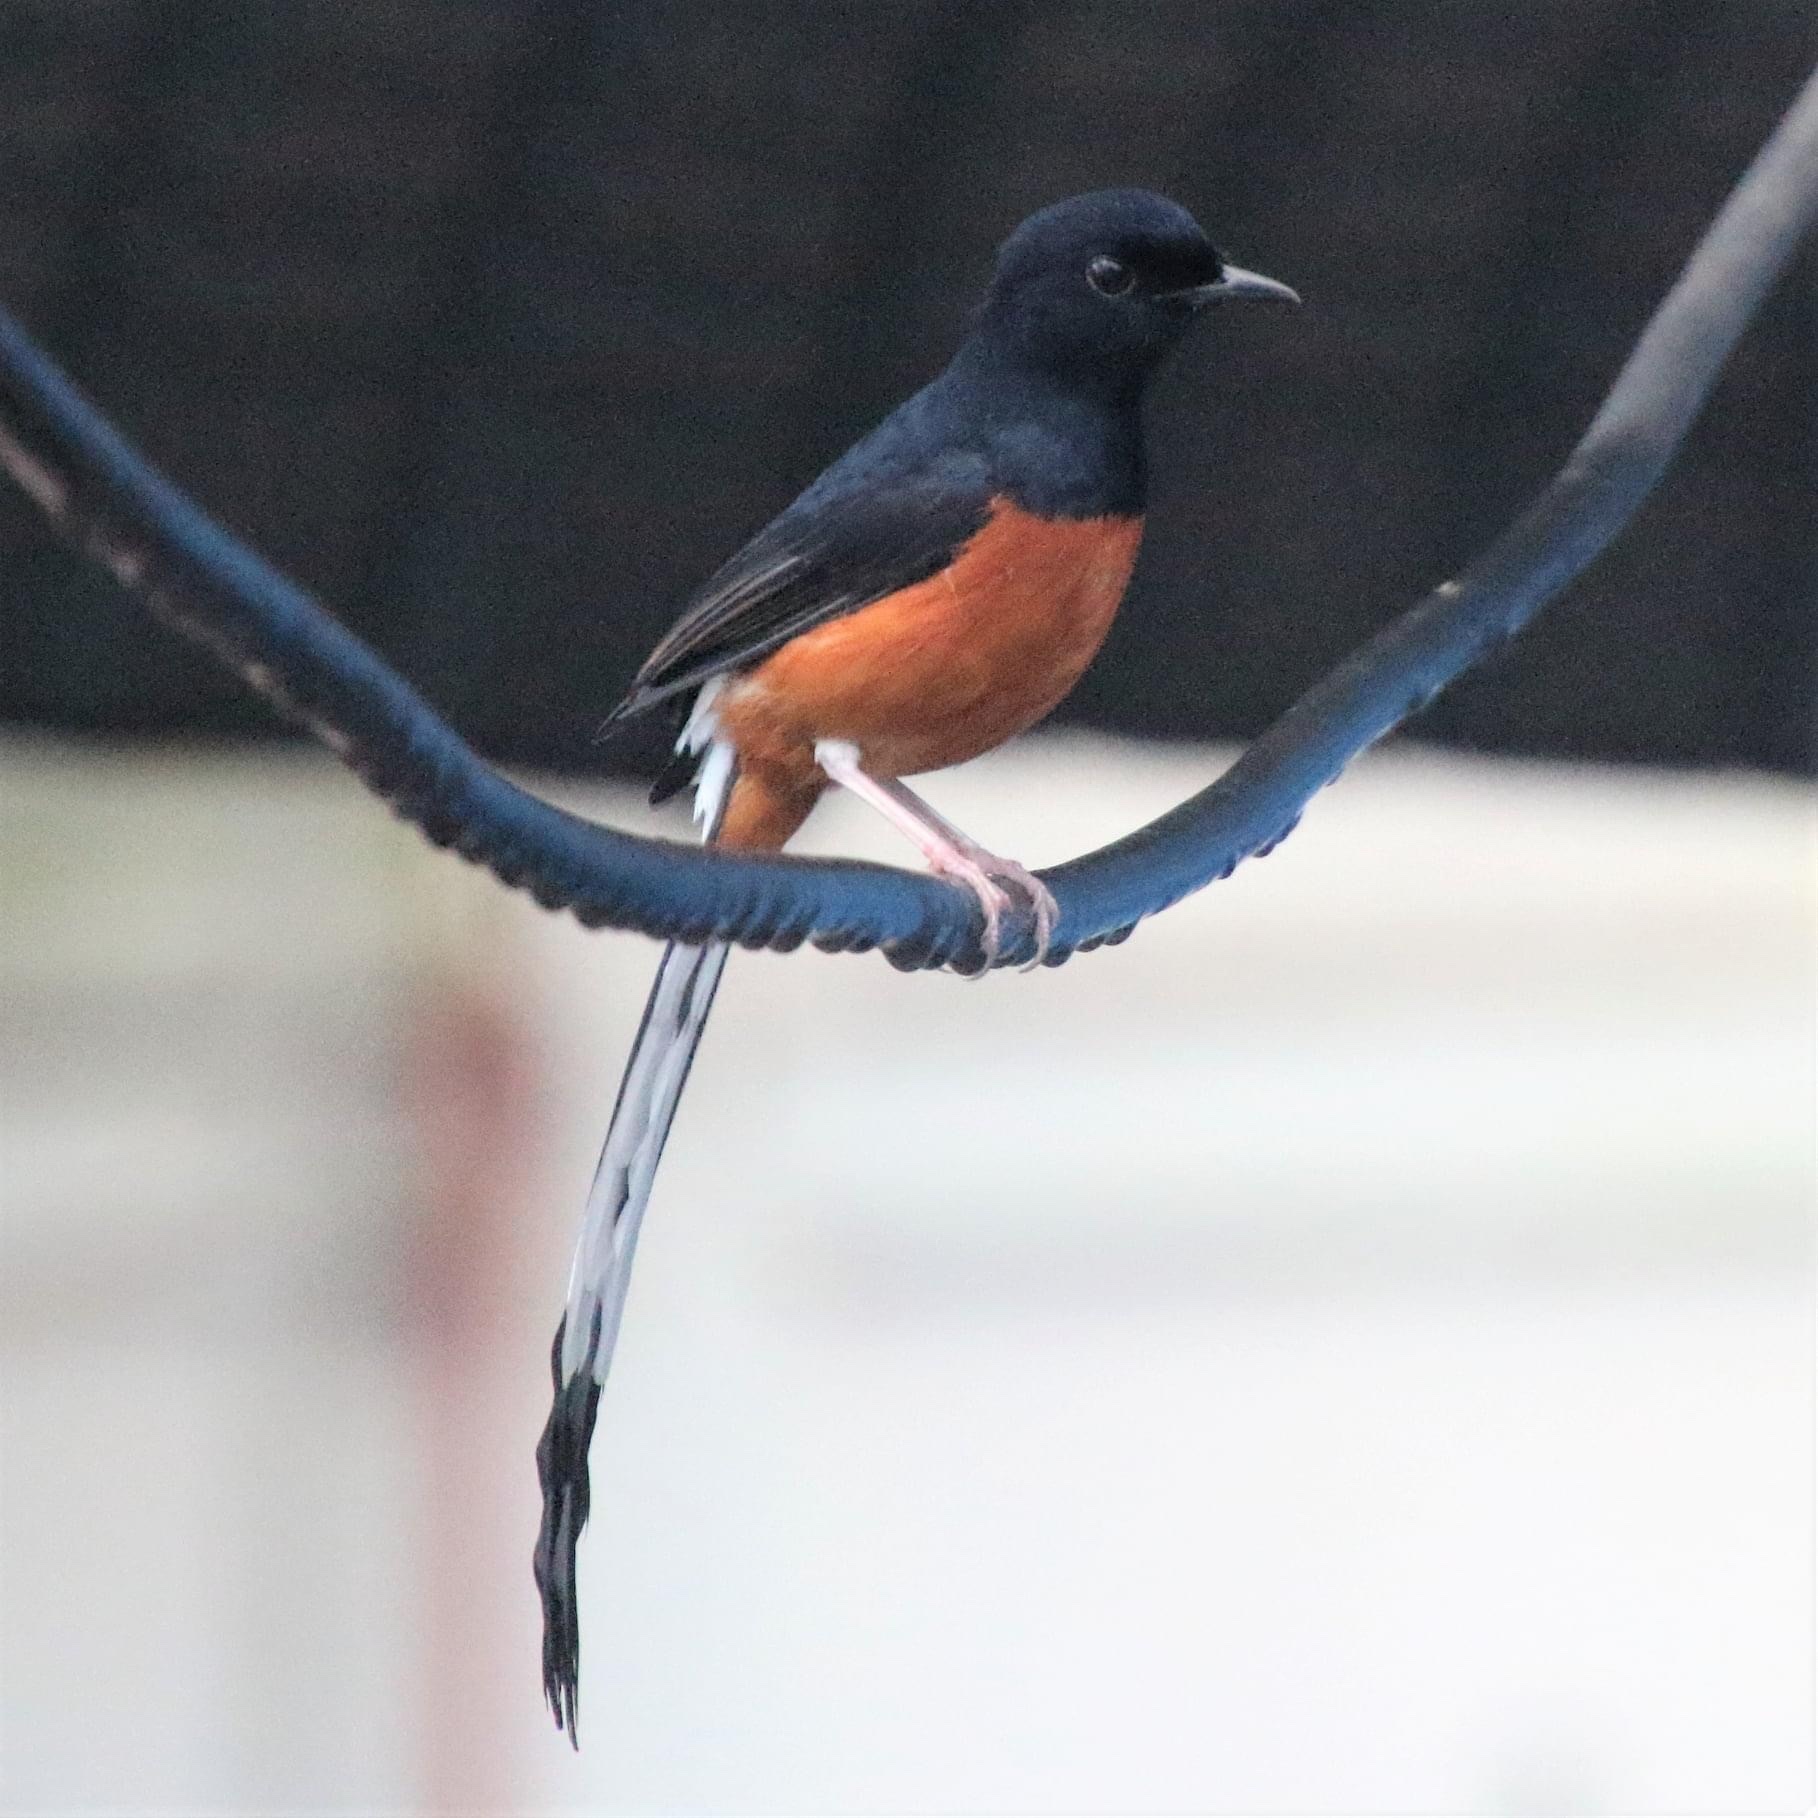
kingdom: Animalia
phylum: Chordata
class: Aves
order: Passeriformes
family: Muscicapidae
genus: Copsychus
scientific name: Copsychus malabaricus
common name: White-rumped shama
